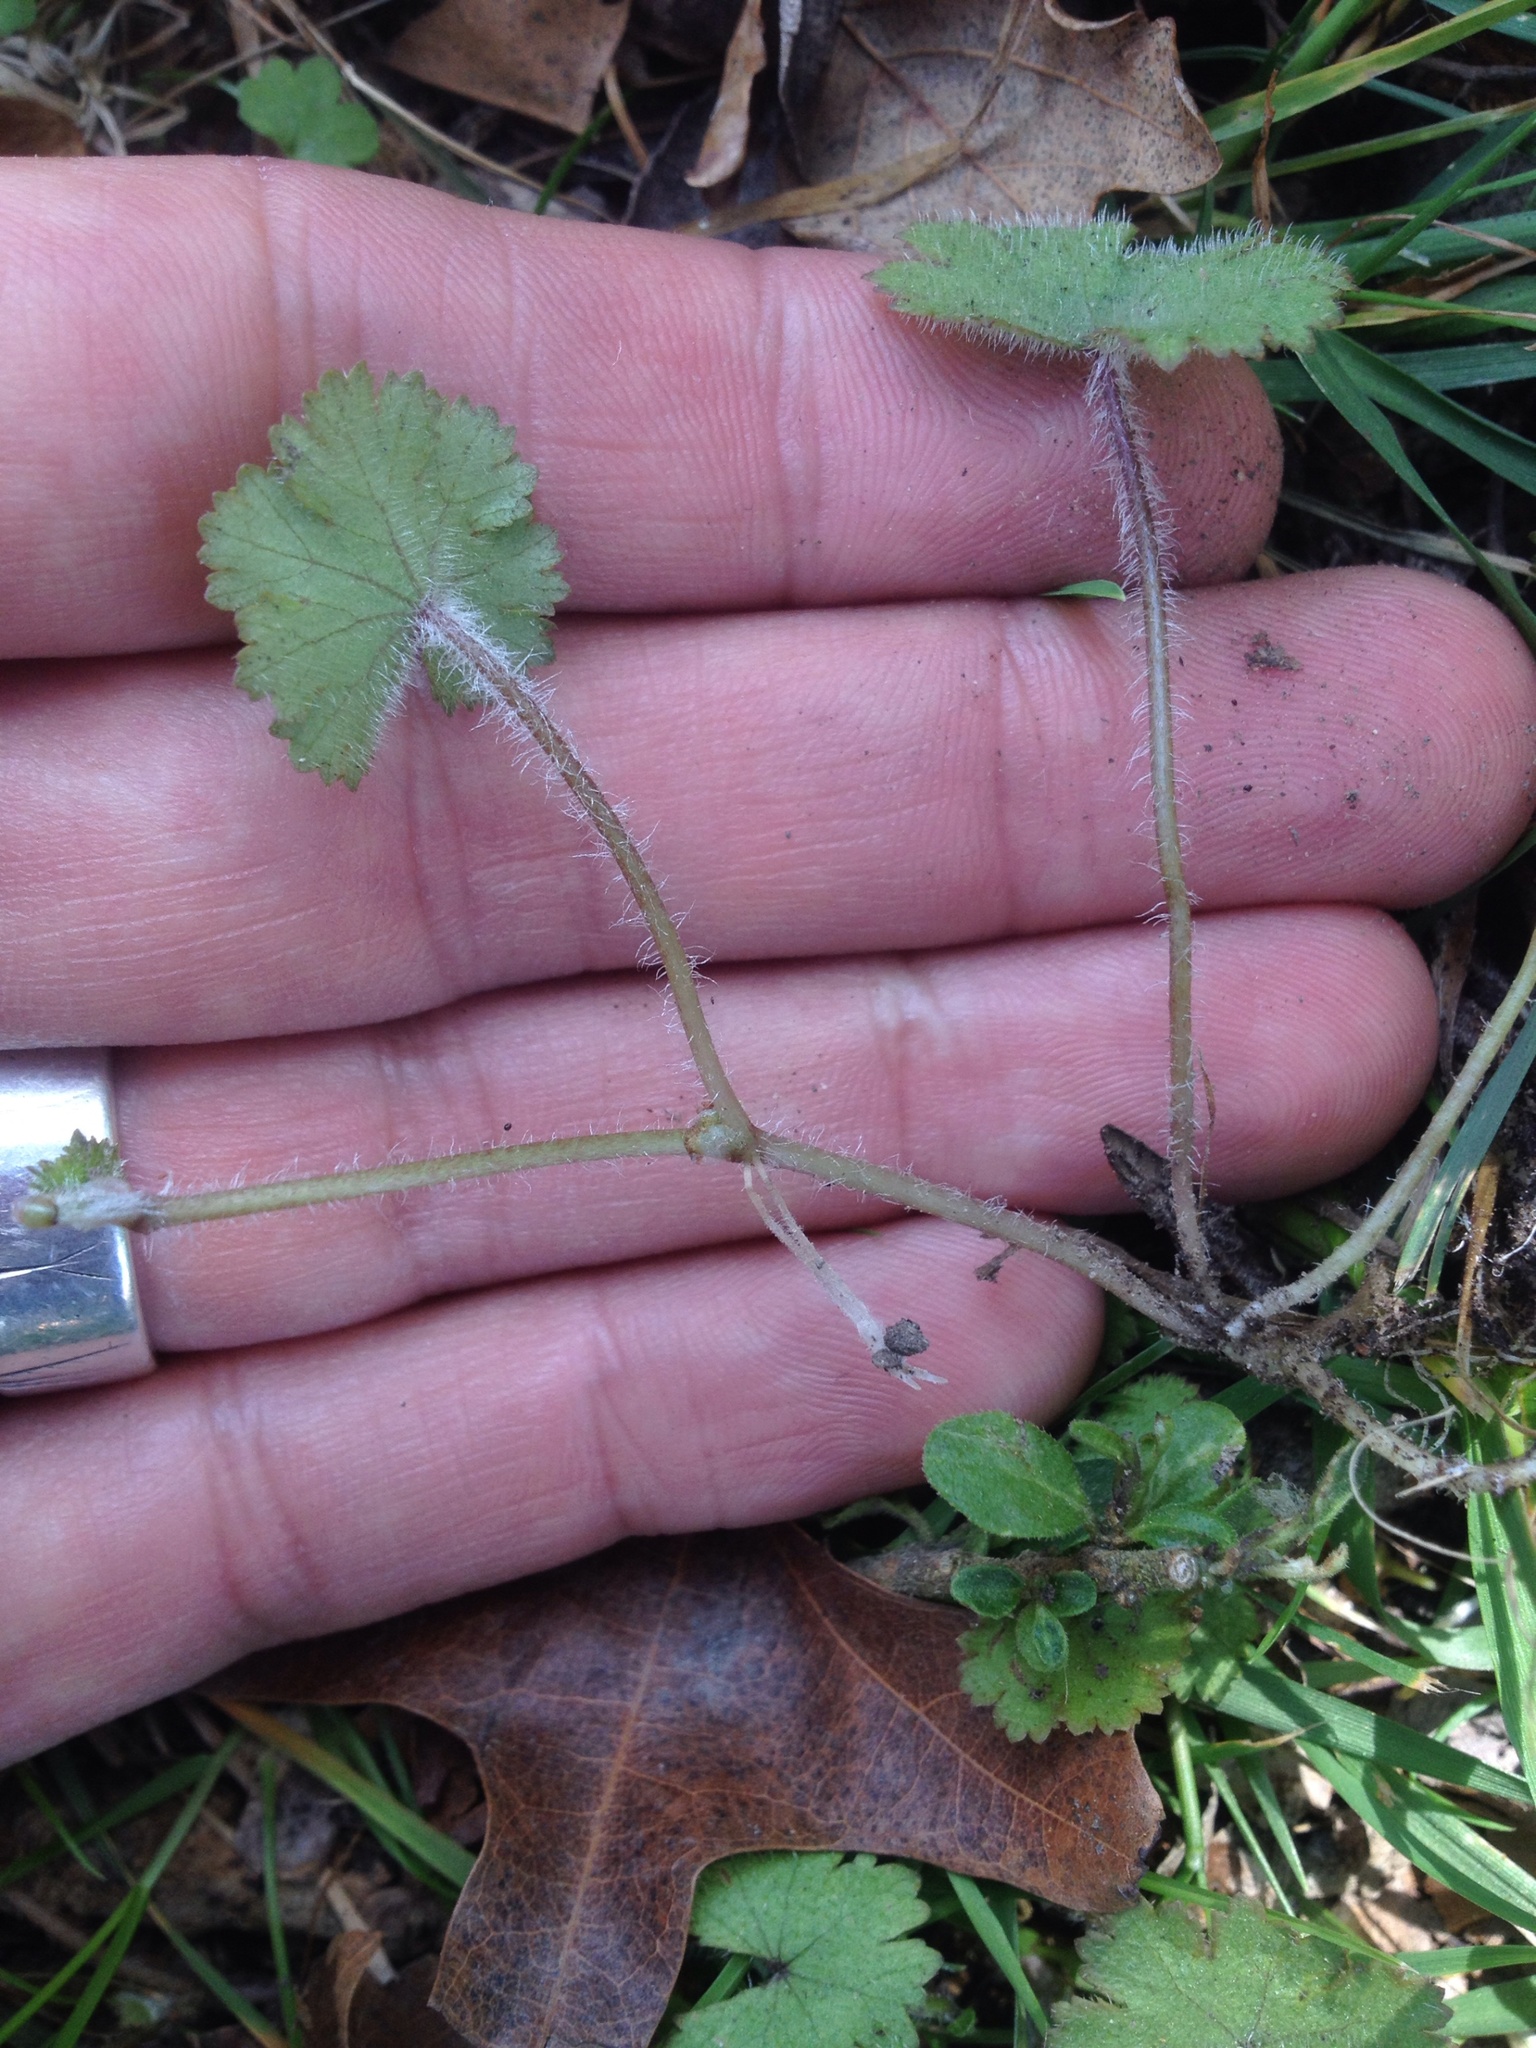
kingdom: Plantae
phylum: Tracheophyta
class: Magnoliopsida
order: Apiales
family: Araliaceae
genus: Hydrocotyle
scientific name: Hydrocotyle moschata
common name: Hairy pennywort
